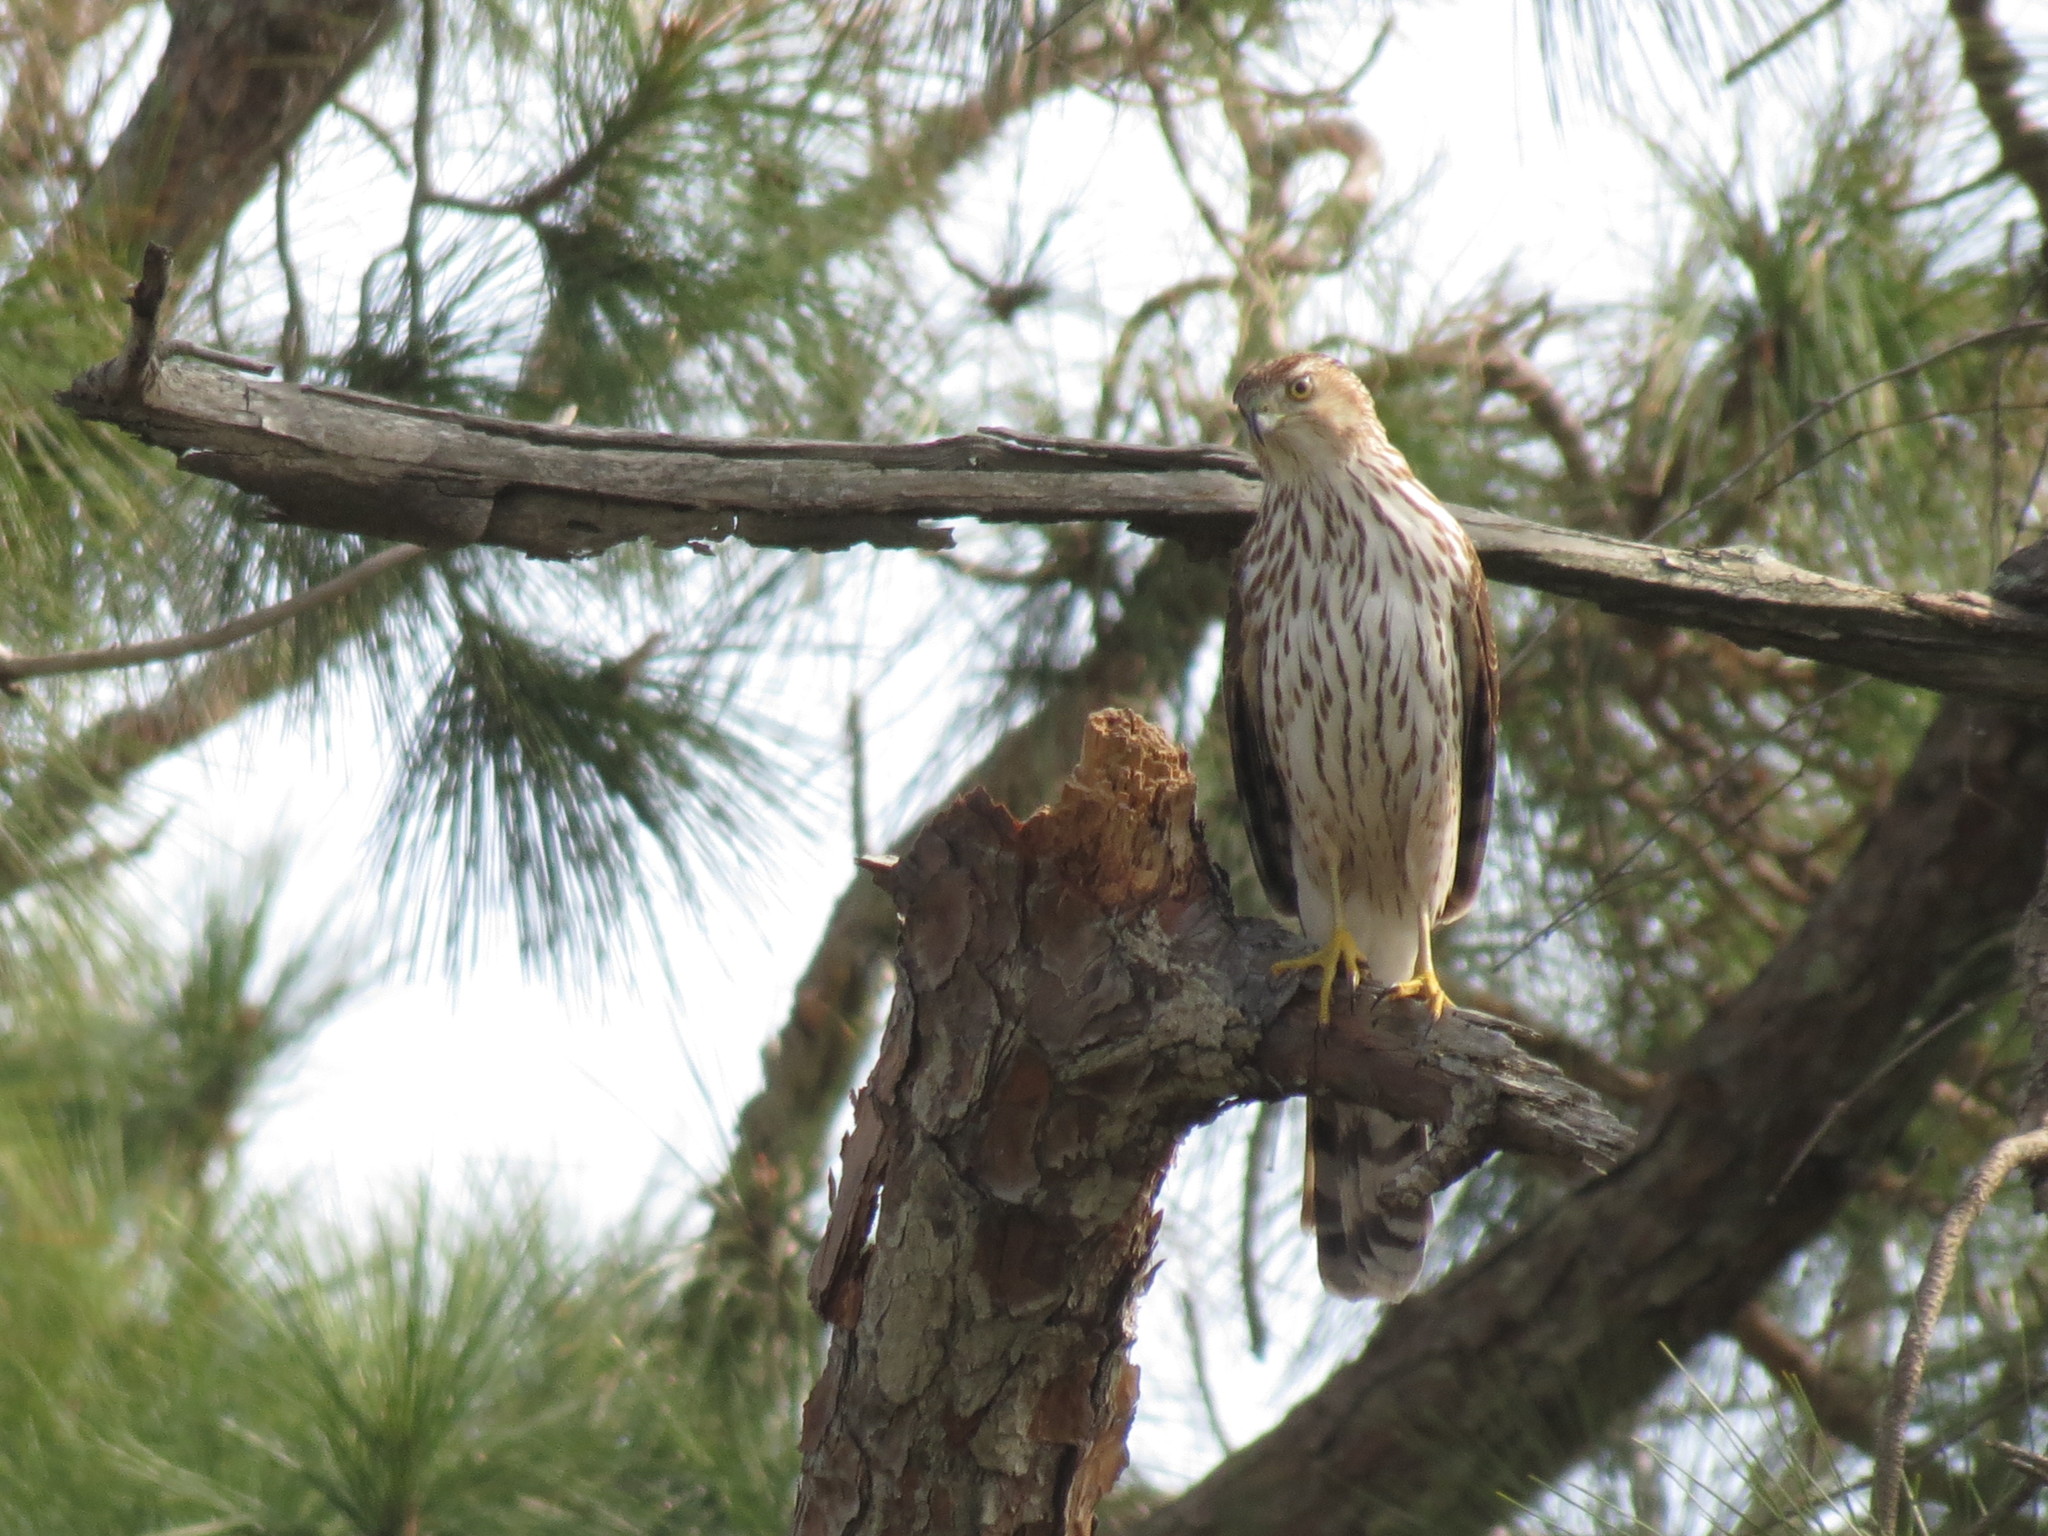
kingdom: Animalia
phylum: Chordata
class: Aves
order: Accipitriformes
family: Accipitridae
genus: Accipiter
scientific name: Accipiter cooperii
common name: Cooper's hawk
